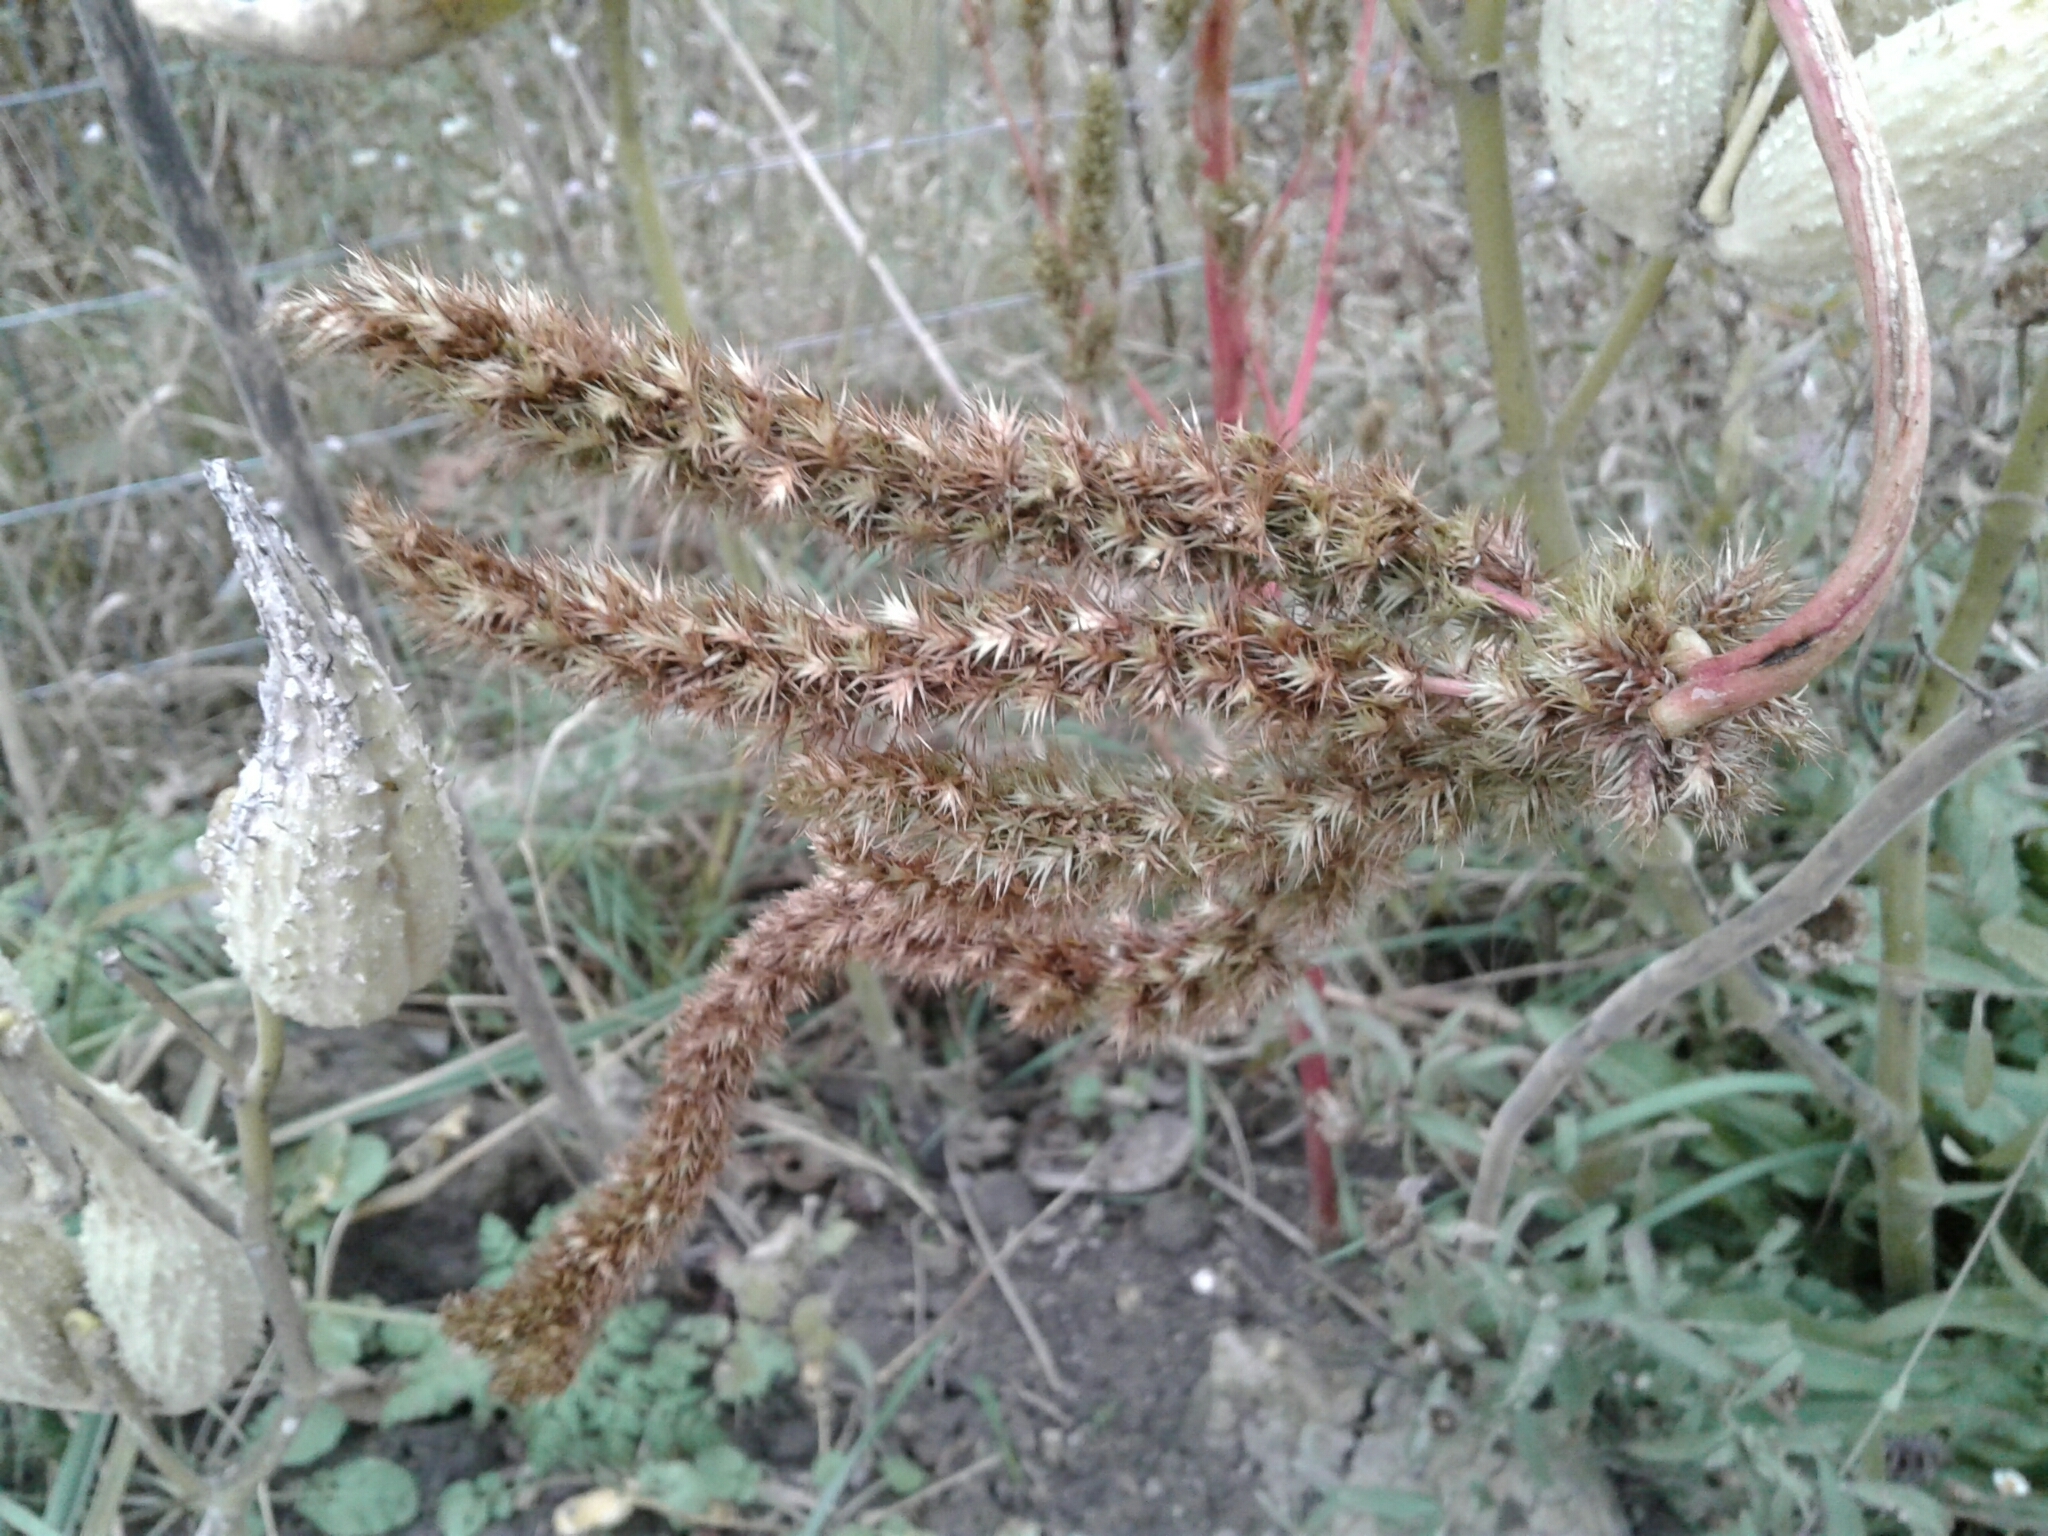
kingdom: Plantae
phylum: Tracheophyta
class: Magnoliopsida
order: Caryophyllales
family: Amaranthaceae
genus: Amaranthus
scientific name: Amaranthus retroflexus
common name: Redroot amaranth
